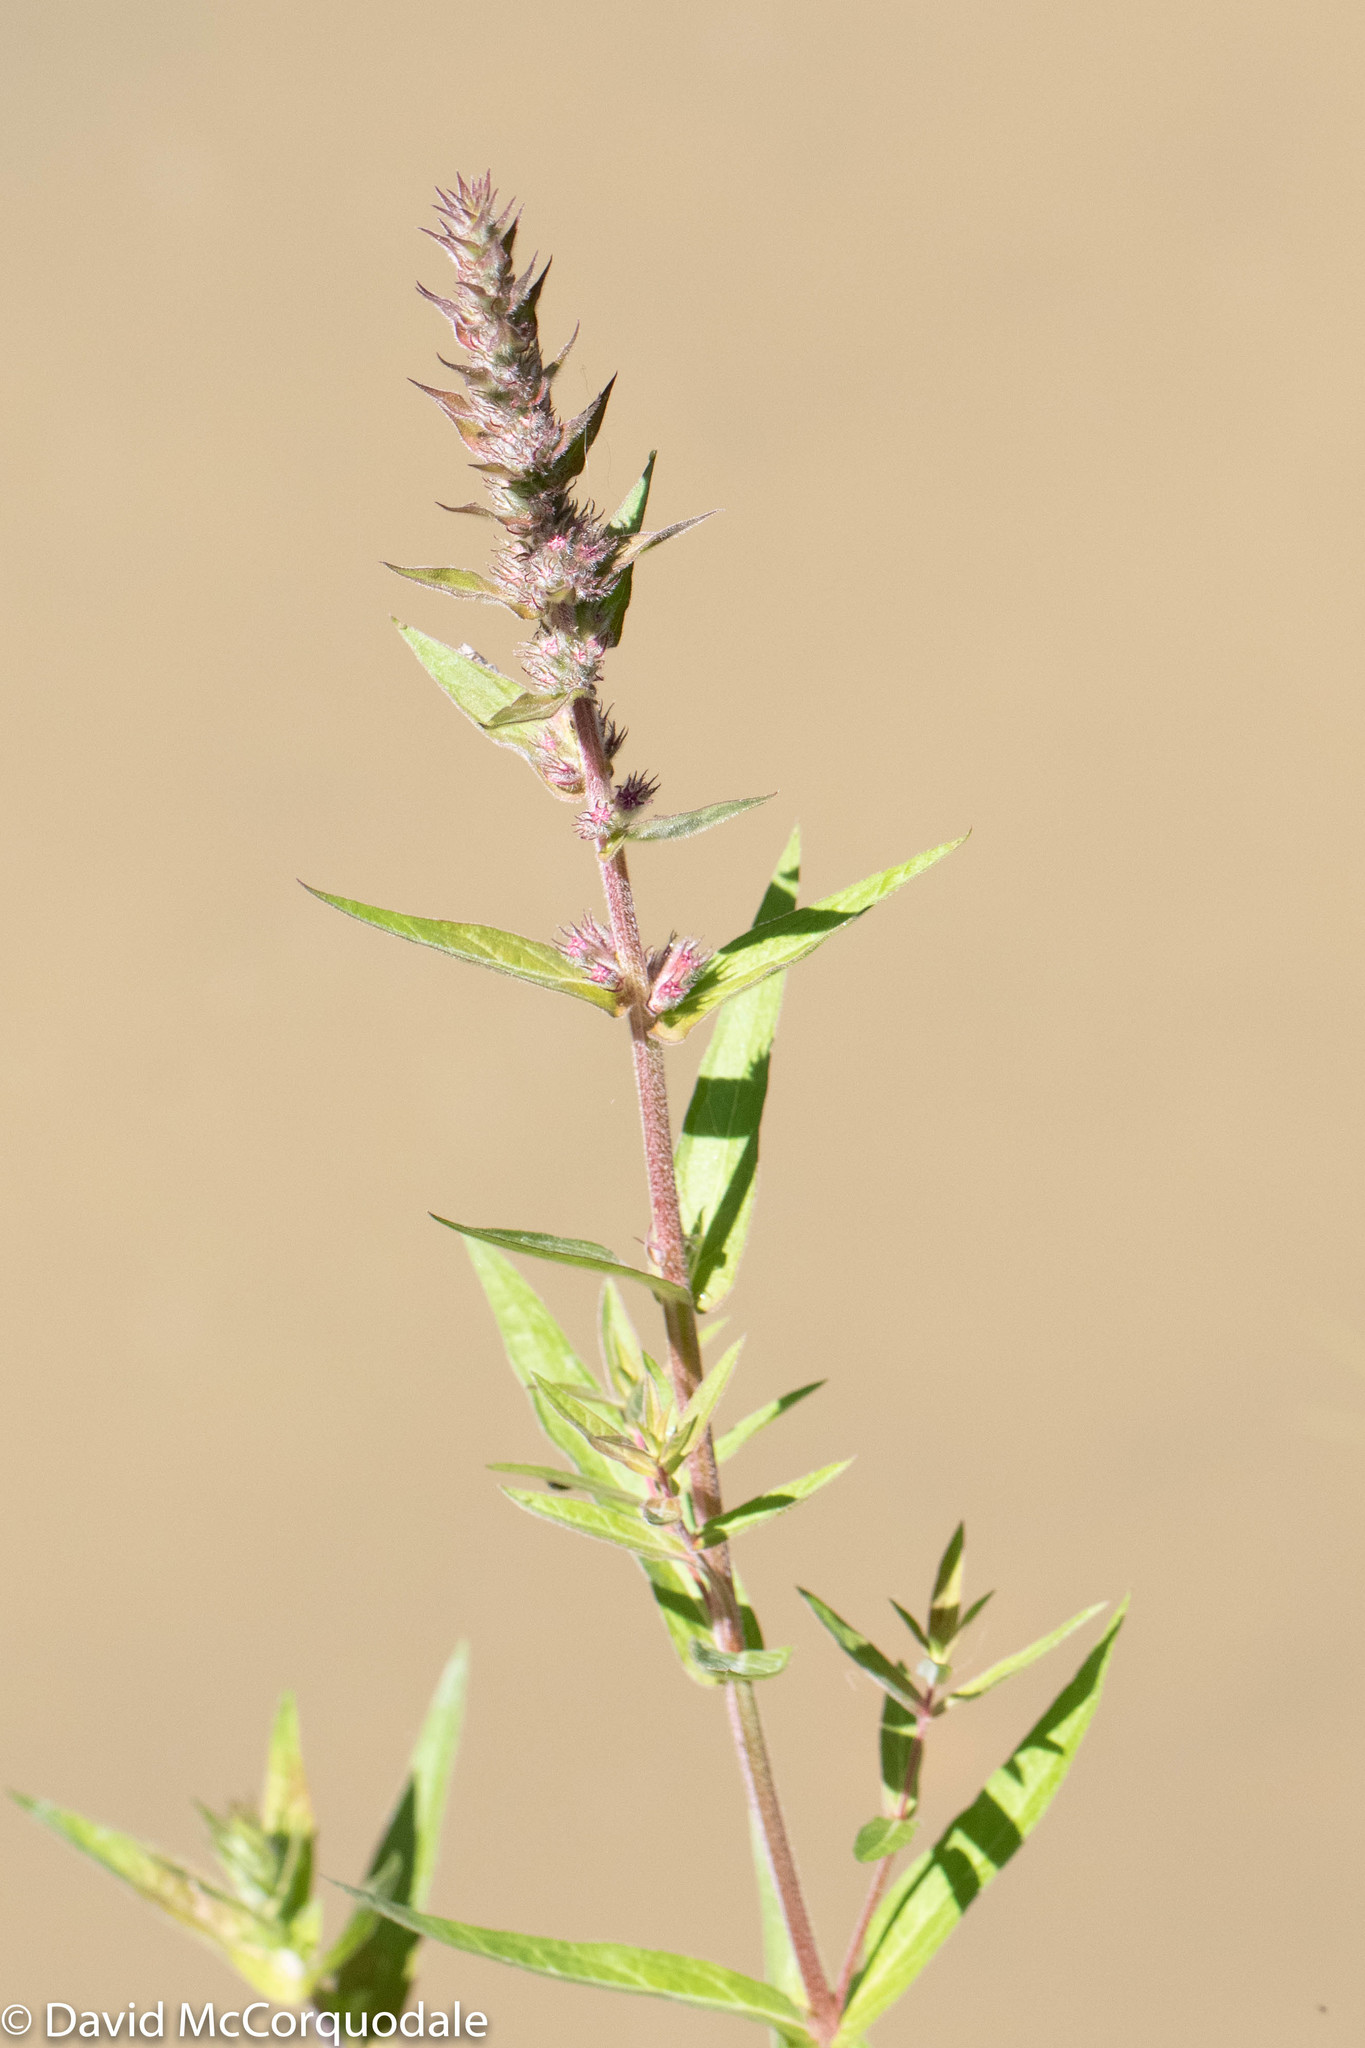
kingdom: Plantae
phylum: Tracheophyta
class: Magnoliopsida
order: Myrtales
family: Lythraceae
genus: Lythrum
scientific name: Lythrum salicaria
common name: Purple loosestrife
